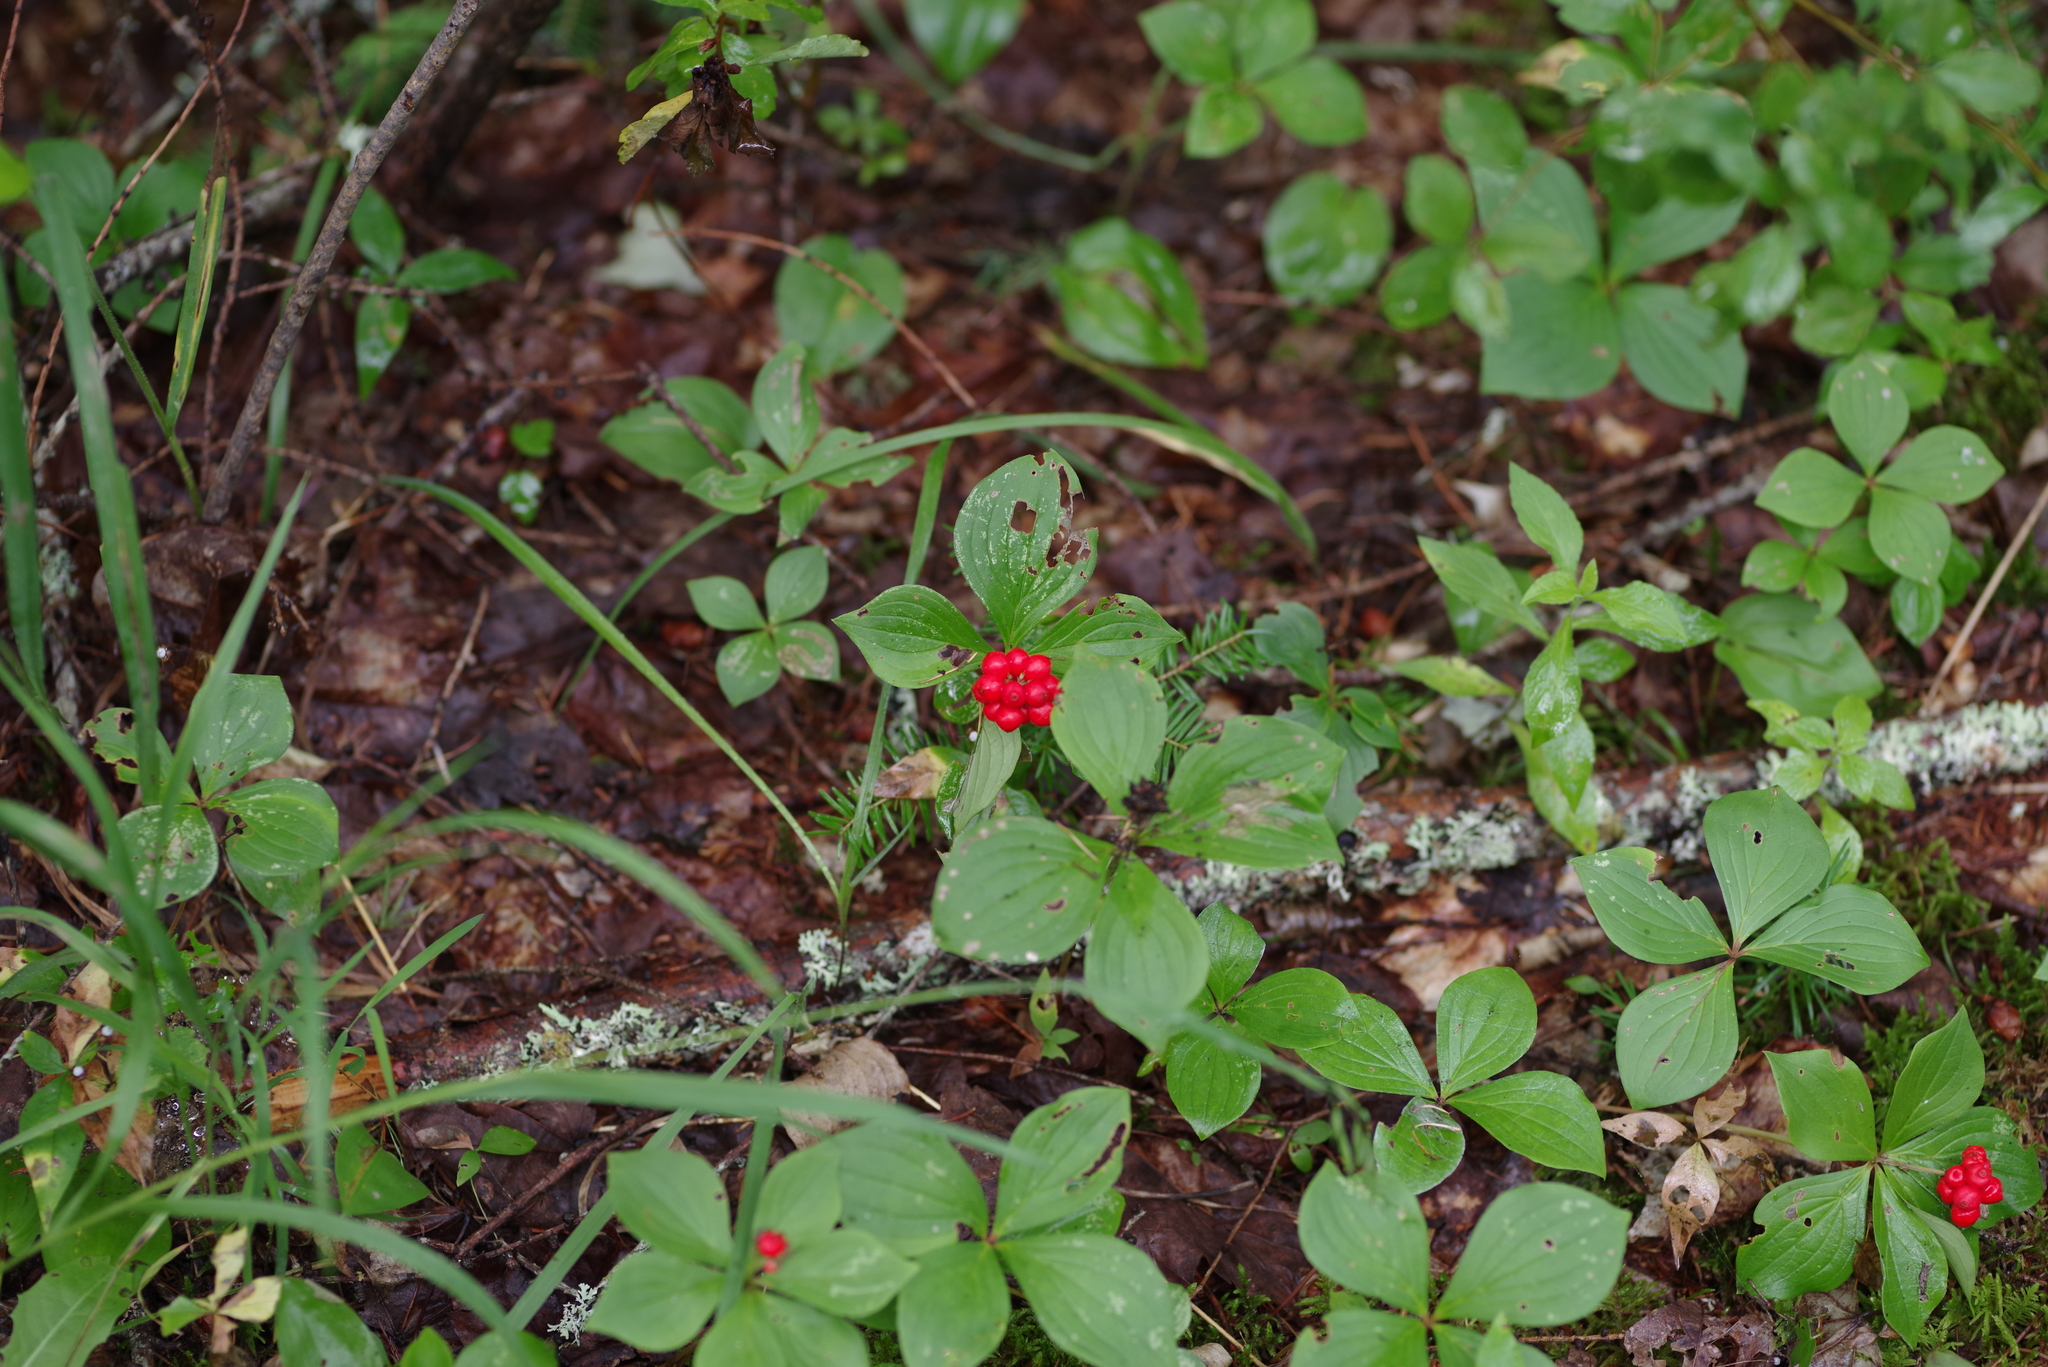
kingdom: Plantae
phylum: Tracheophyta
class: Magnoliopsida
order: Cornales
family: Cornaceae
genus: Cornus
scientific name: Cornus canadensis
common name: Creeping dogwood
